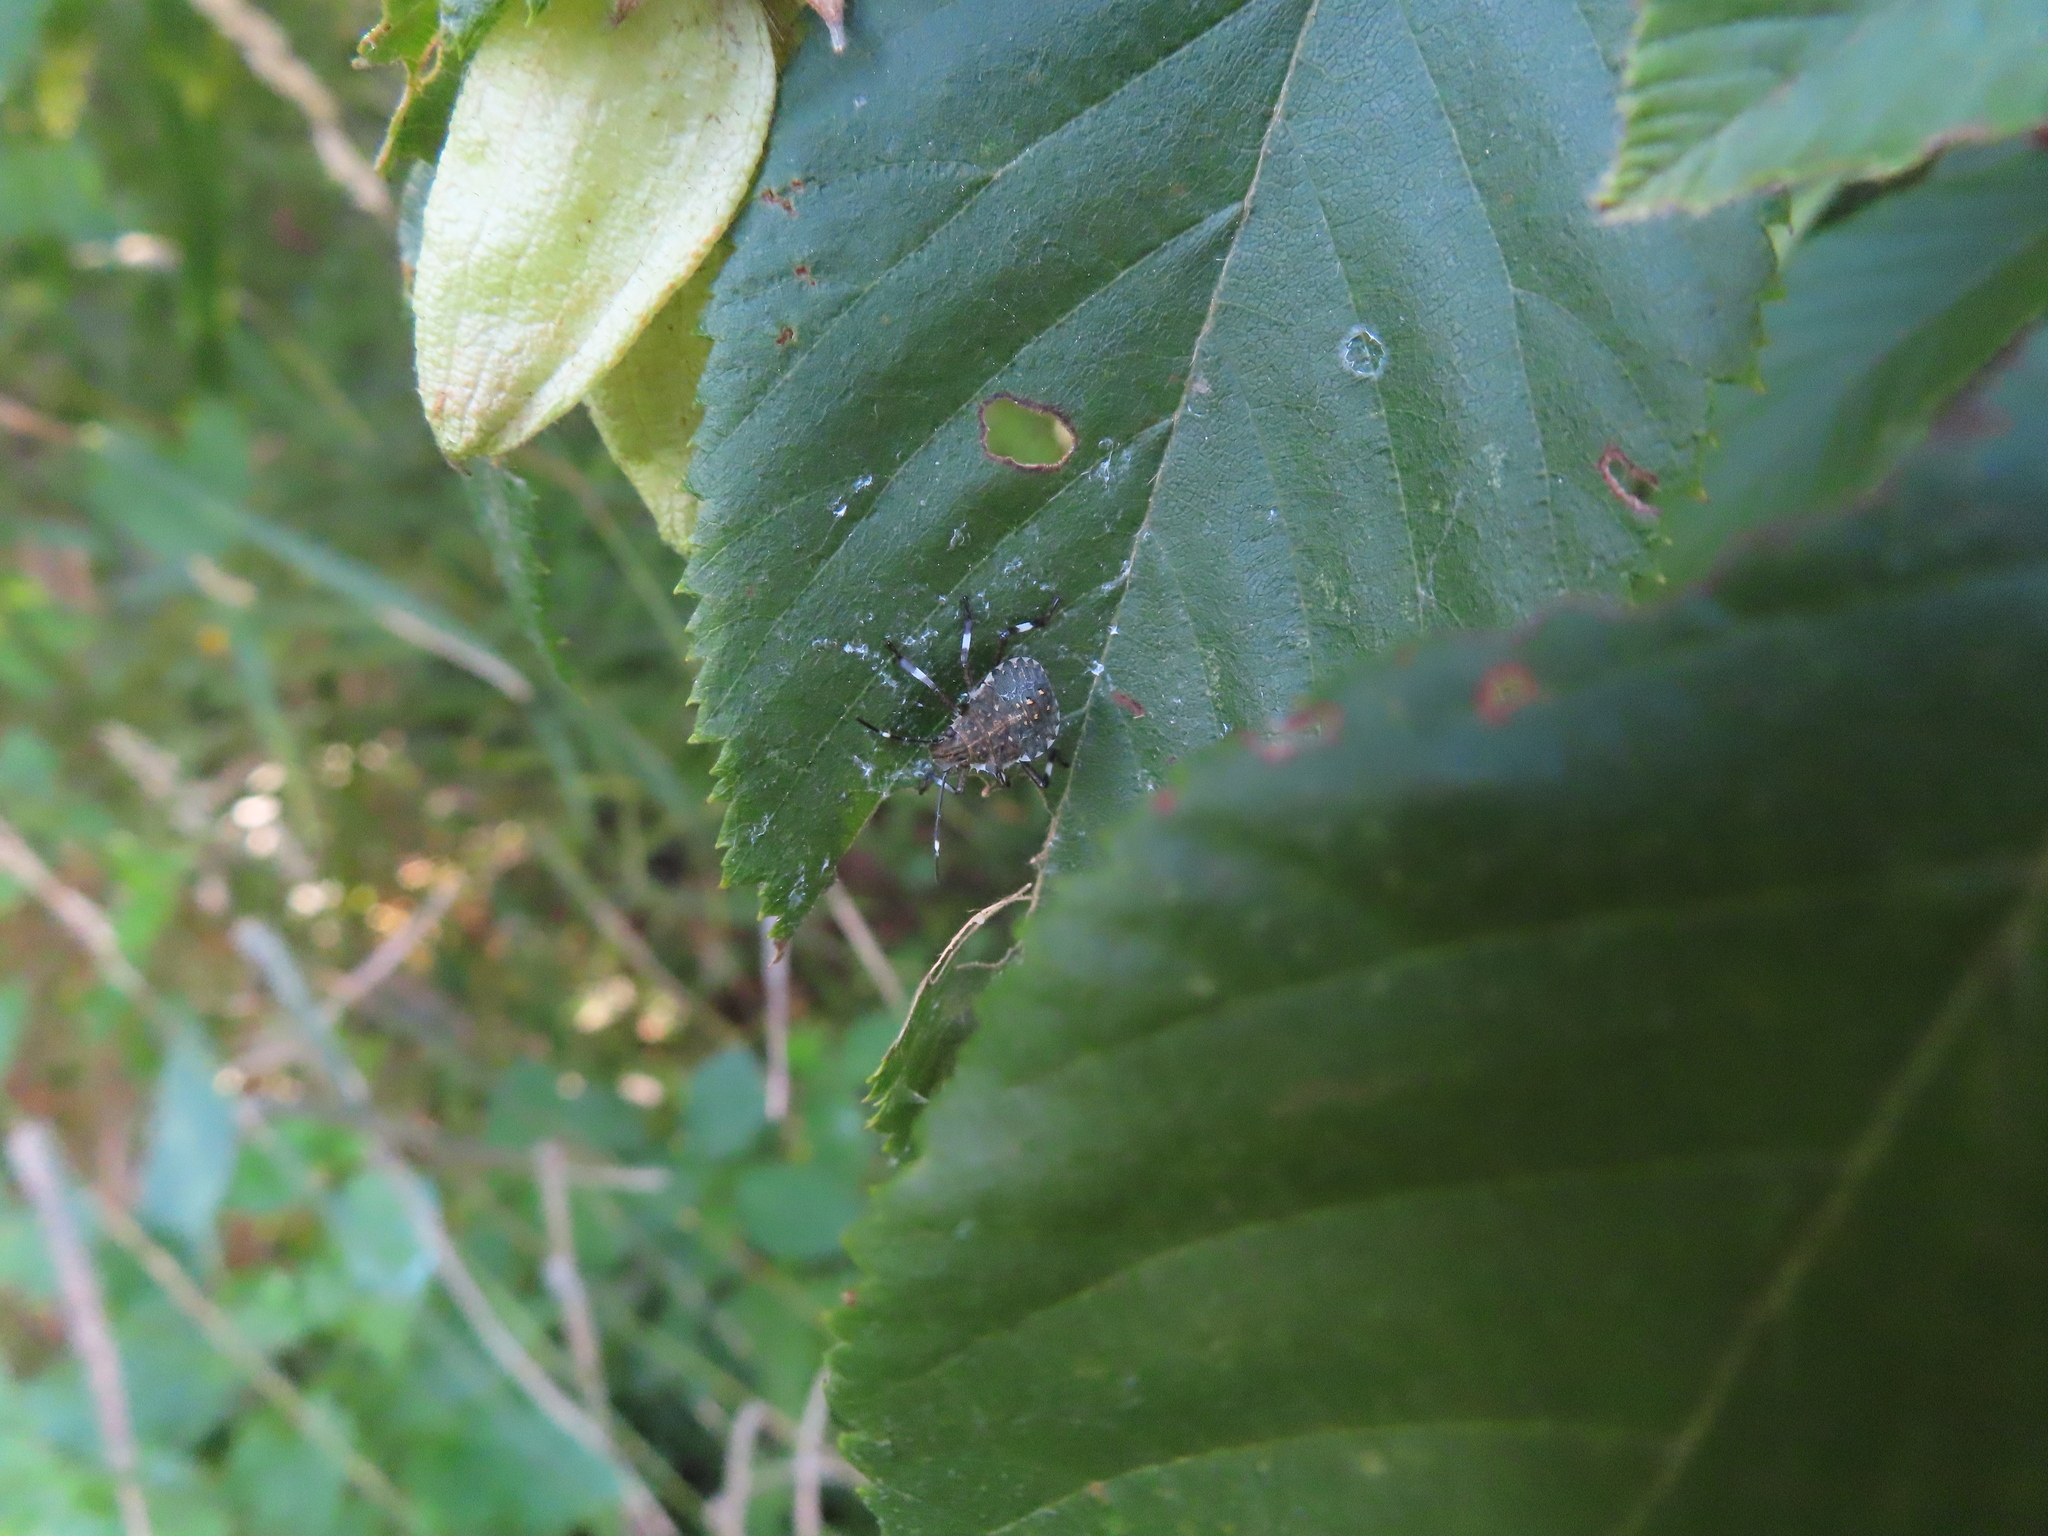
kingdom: Animalia
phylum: Arthropoda
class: Insecta
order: Hemiptera
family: Pentatomidae
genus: Halyomorpha
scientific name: Halyomorpha halys
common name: Brown marmorated stink bug
